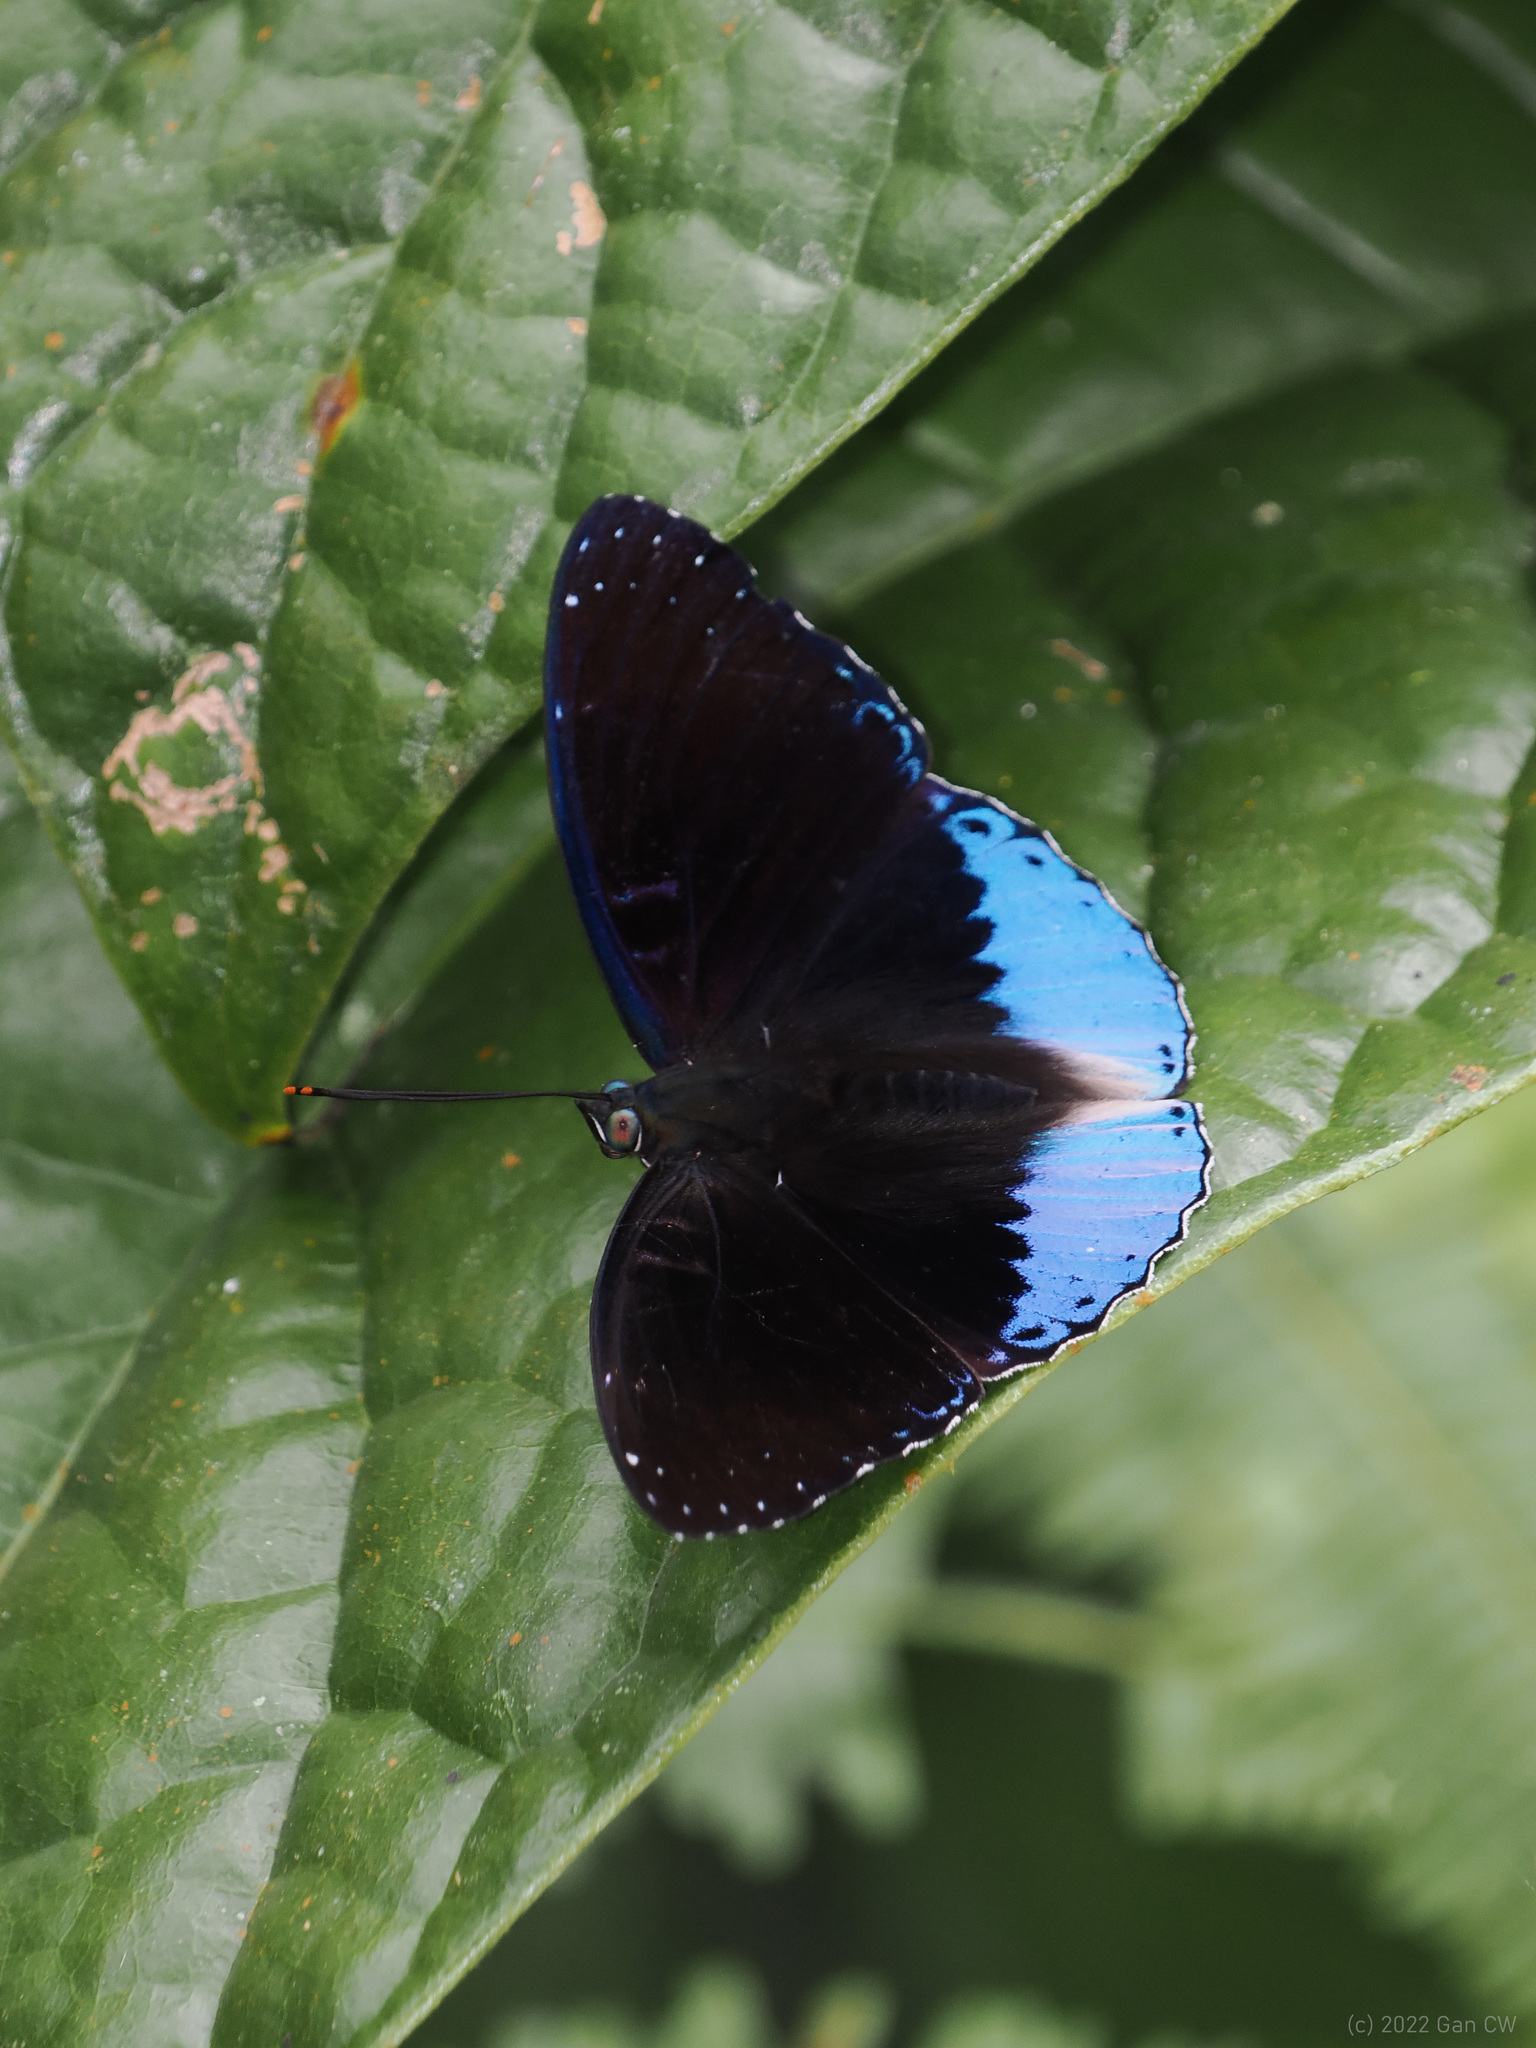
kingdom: Animalia
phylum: Arthropoda
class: Insecta
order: Lepidoptera
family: Nymphalidae
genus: Stibochiona
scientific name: Stibochiona coresia
